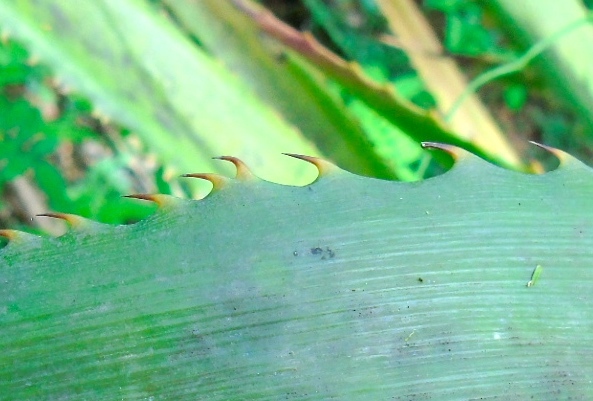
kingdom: Plantae
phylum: Tracheophyta
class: Liliopsida
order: Poales
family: Bromeliaceae
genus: Bromelia
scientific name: Bromelia hemisphaerica
